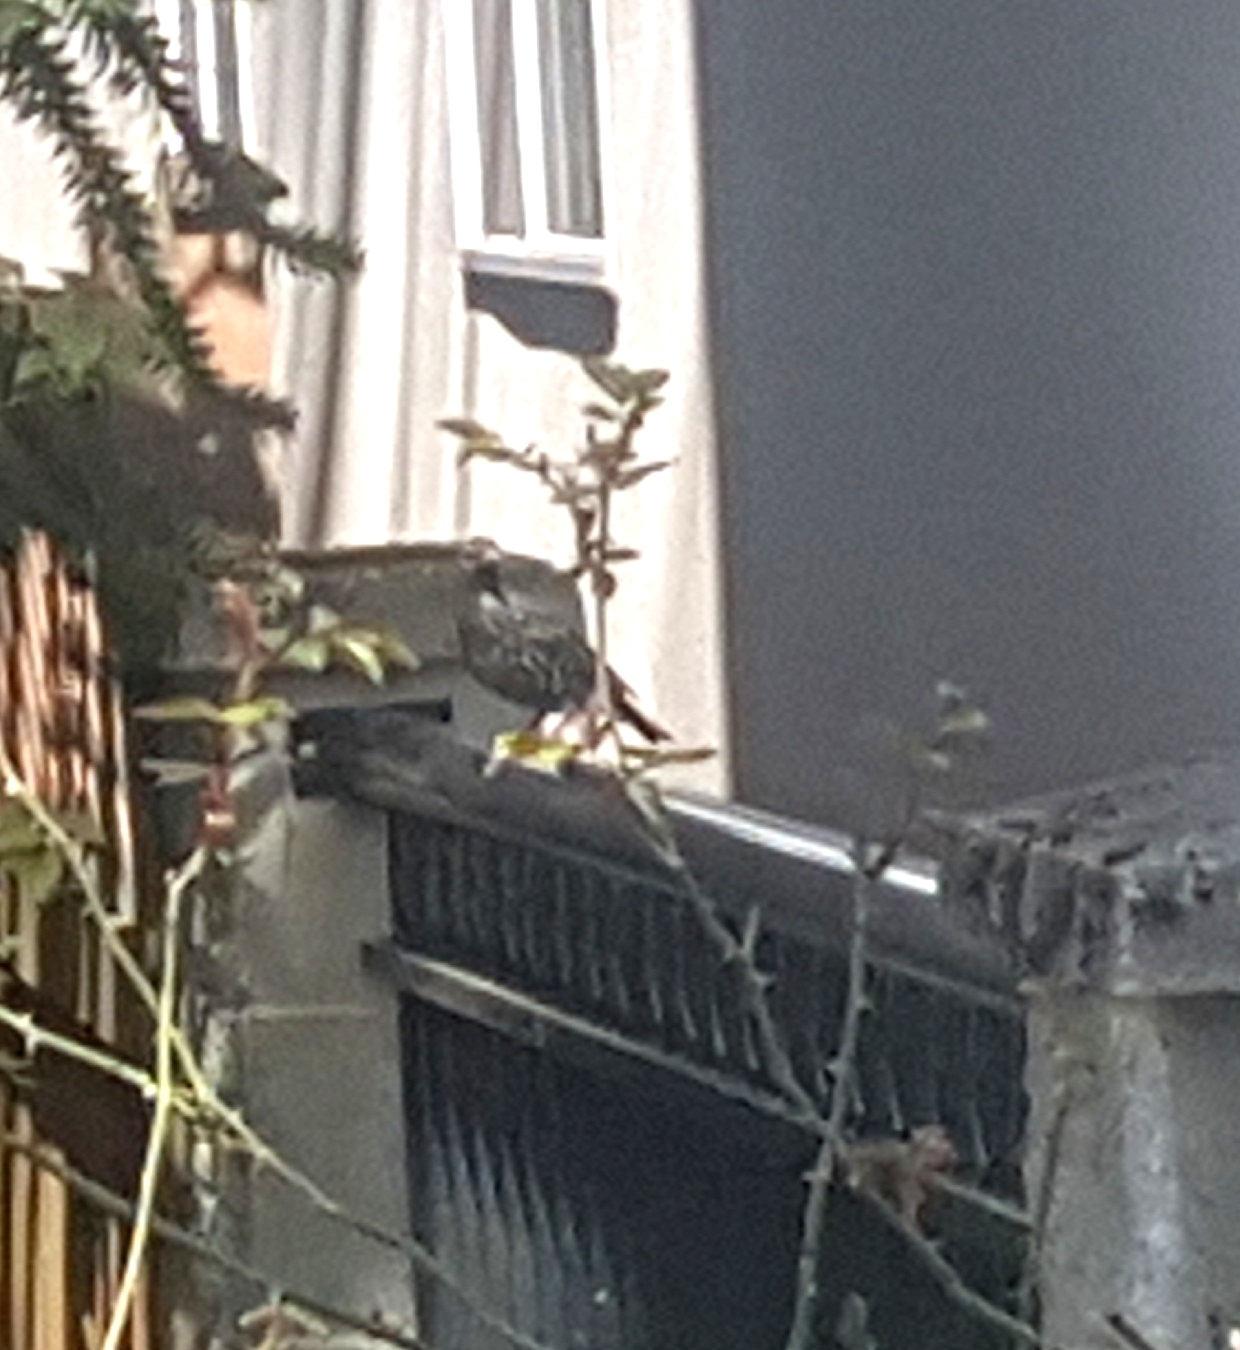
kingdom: Animalia
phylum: Chordata
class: Aves
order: Passeriformes
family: Sturnidae
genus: Sturnus
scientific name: Sturnus vulgaris
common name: Common starling
